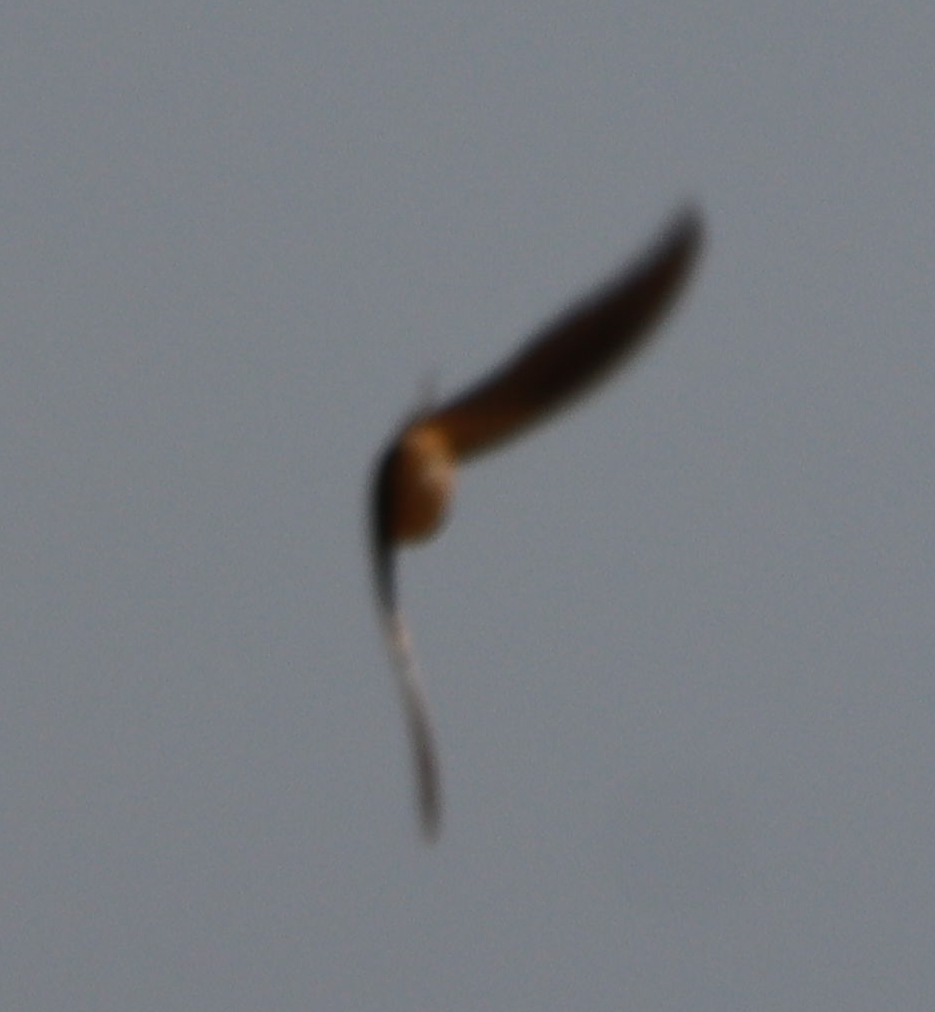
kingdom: Animalia
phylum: Chordata
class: Aves
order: Passeriformes
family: Hirundinidae
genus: Hirundo
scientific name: Hirundo rustica
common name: Barn swallow
